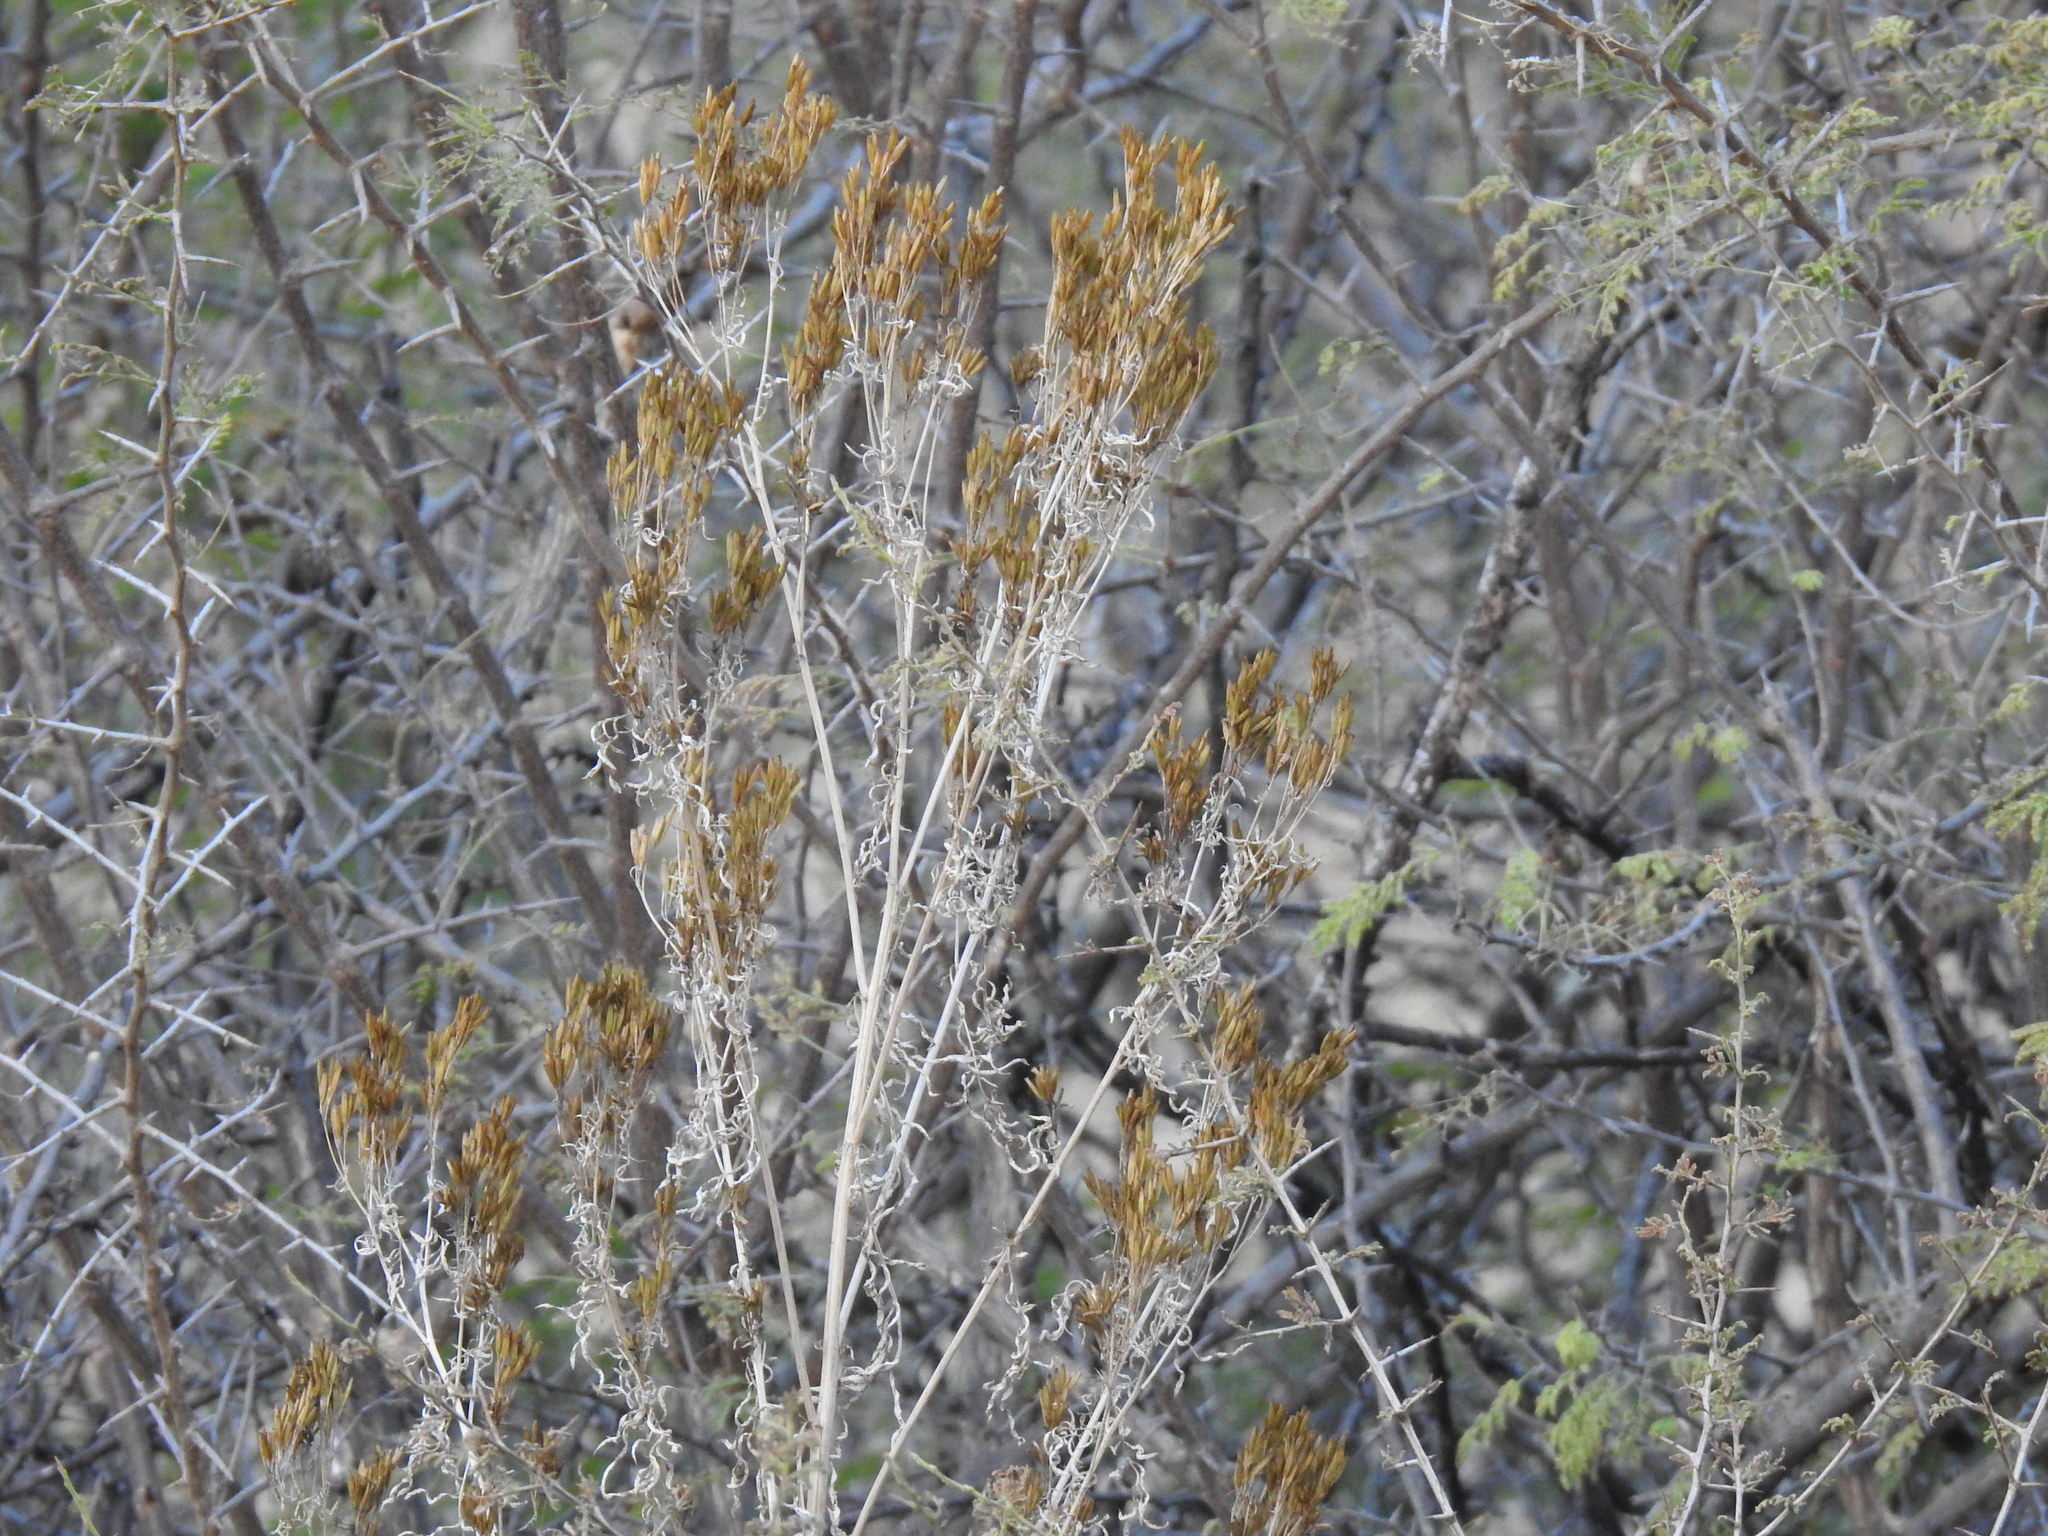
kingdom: Plantae
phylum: Tracheophyta
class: Magnoliopsida
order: Asterales
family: Asteraceae
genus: Tagetes
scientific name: Tagetes minuta
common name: Muster john henry
